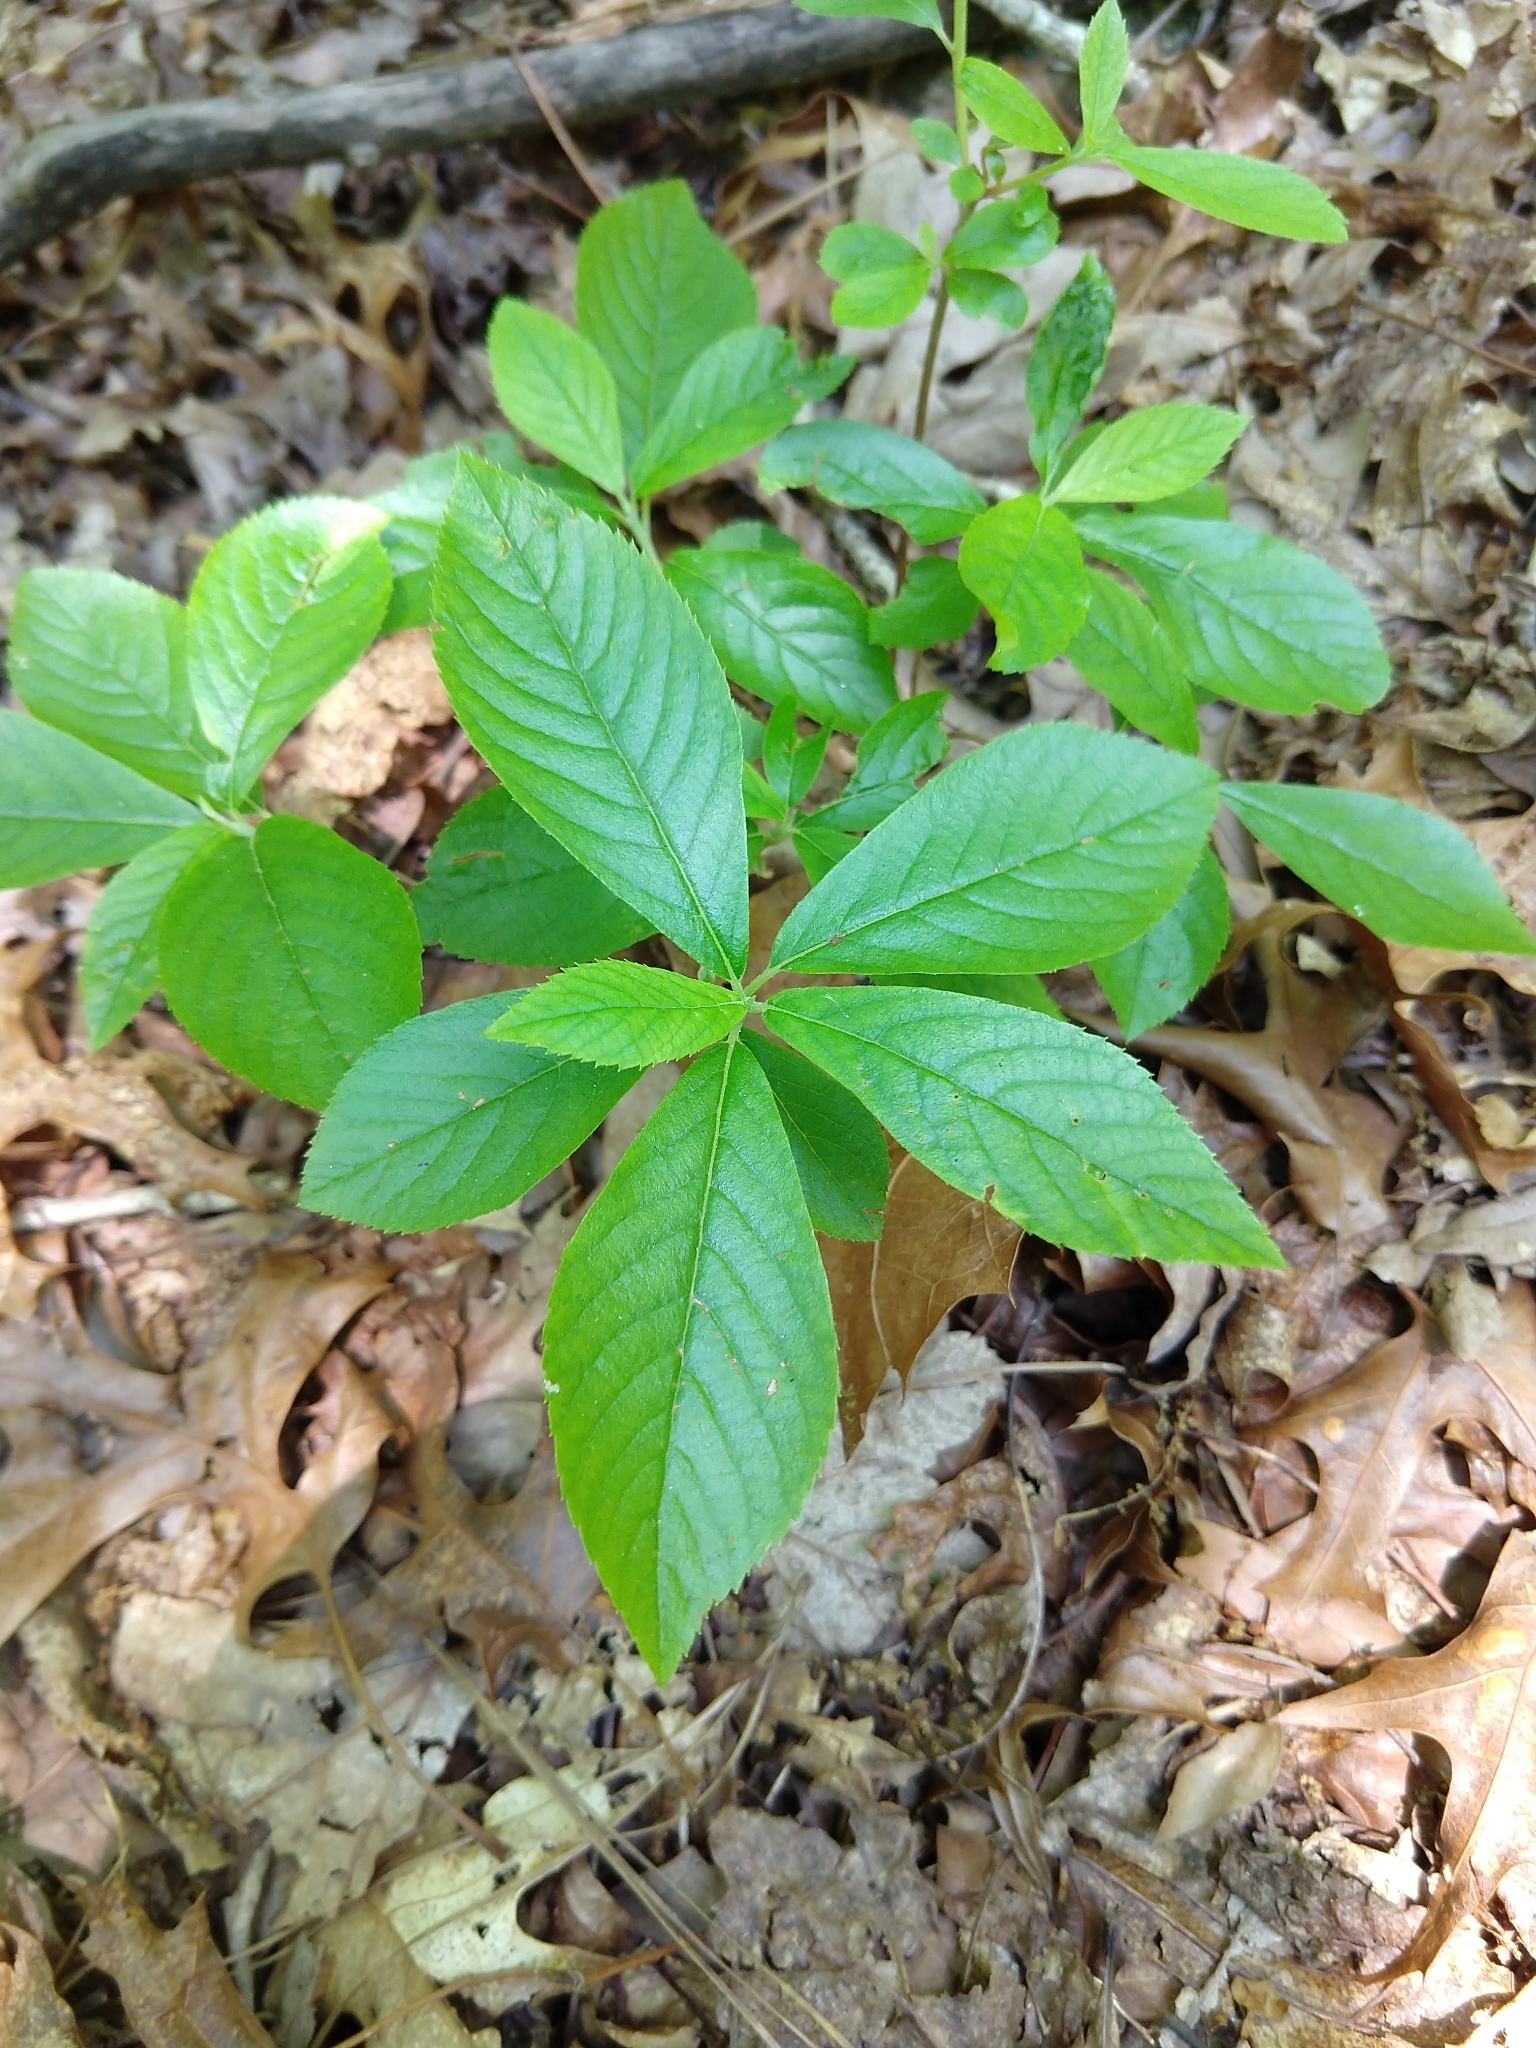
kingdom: Plantae
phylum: Tracheophyta
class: Magnoliopsida
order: Ericales
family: Clethraceae
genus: Clethra
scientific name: Clethra alnifolia
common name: Sweet pepperbush
